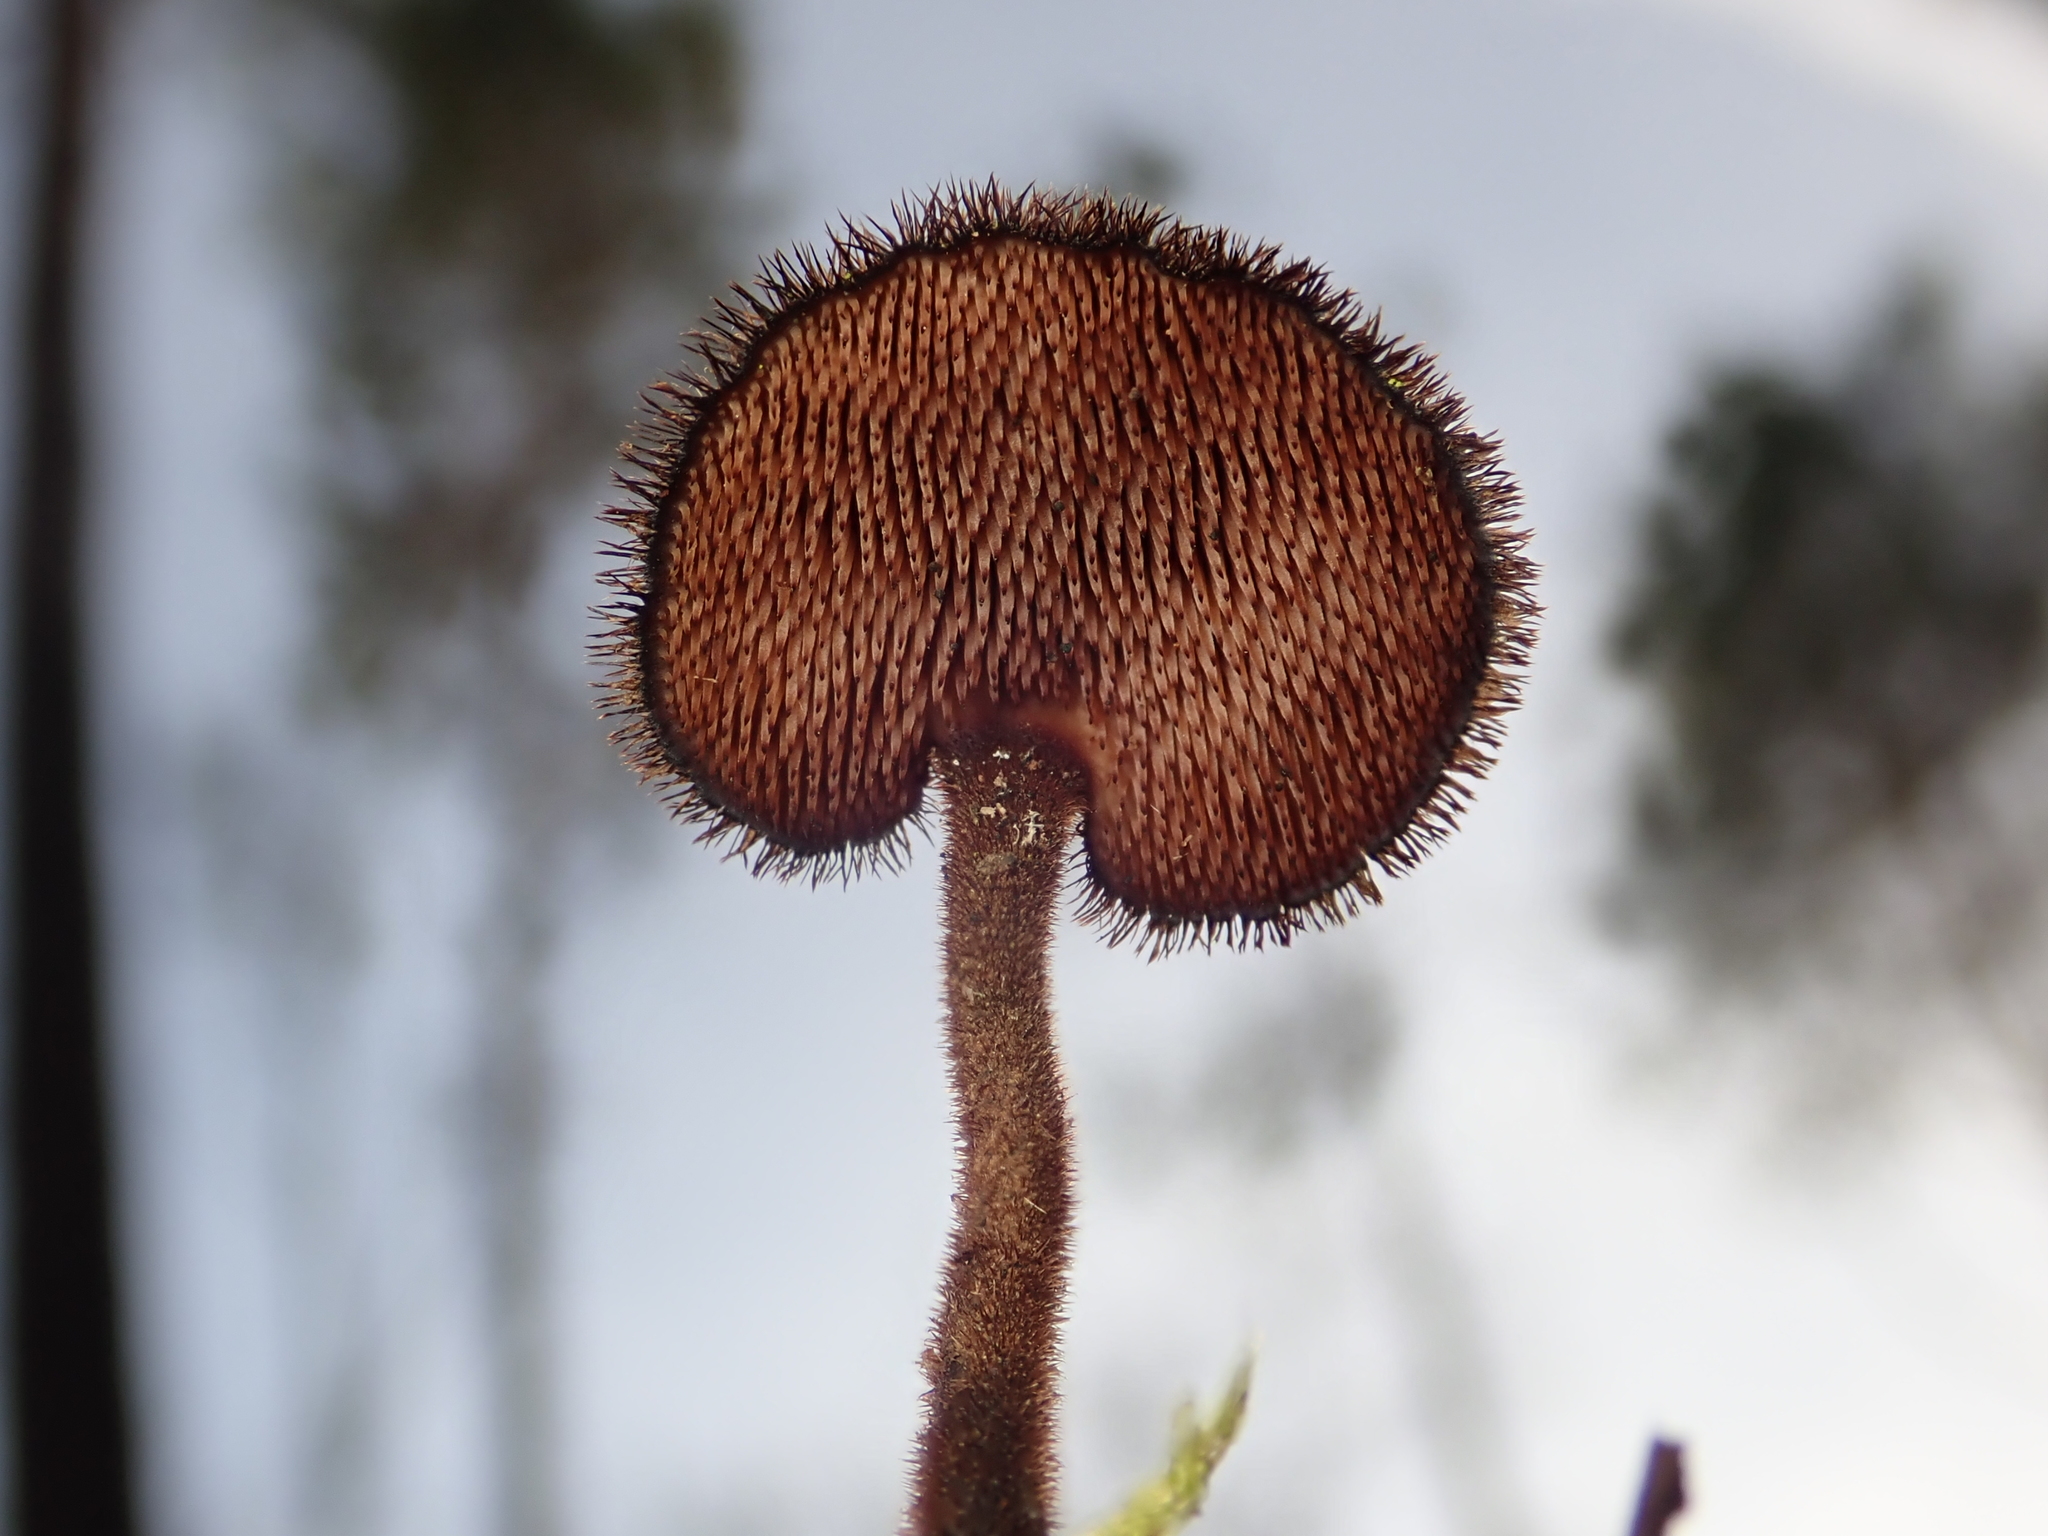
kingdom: Fungi
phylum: Basidiomycota
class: Agaricomycetes
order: Russulales
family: Auriscalpiaceae
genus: Auriscalpium
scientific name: Auriscalpium vulgare
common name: Earpick fungus
